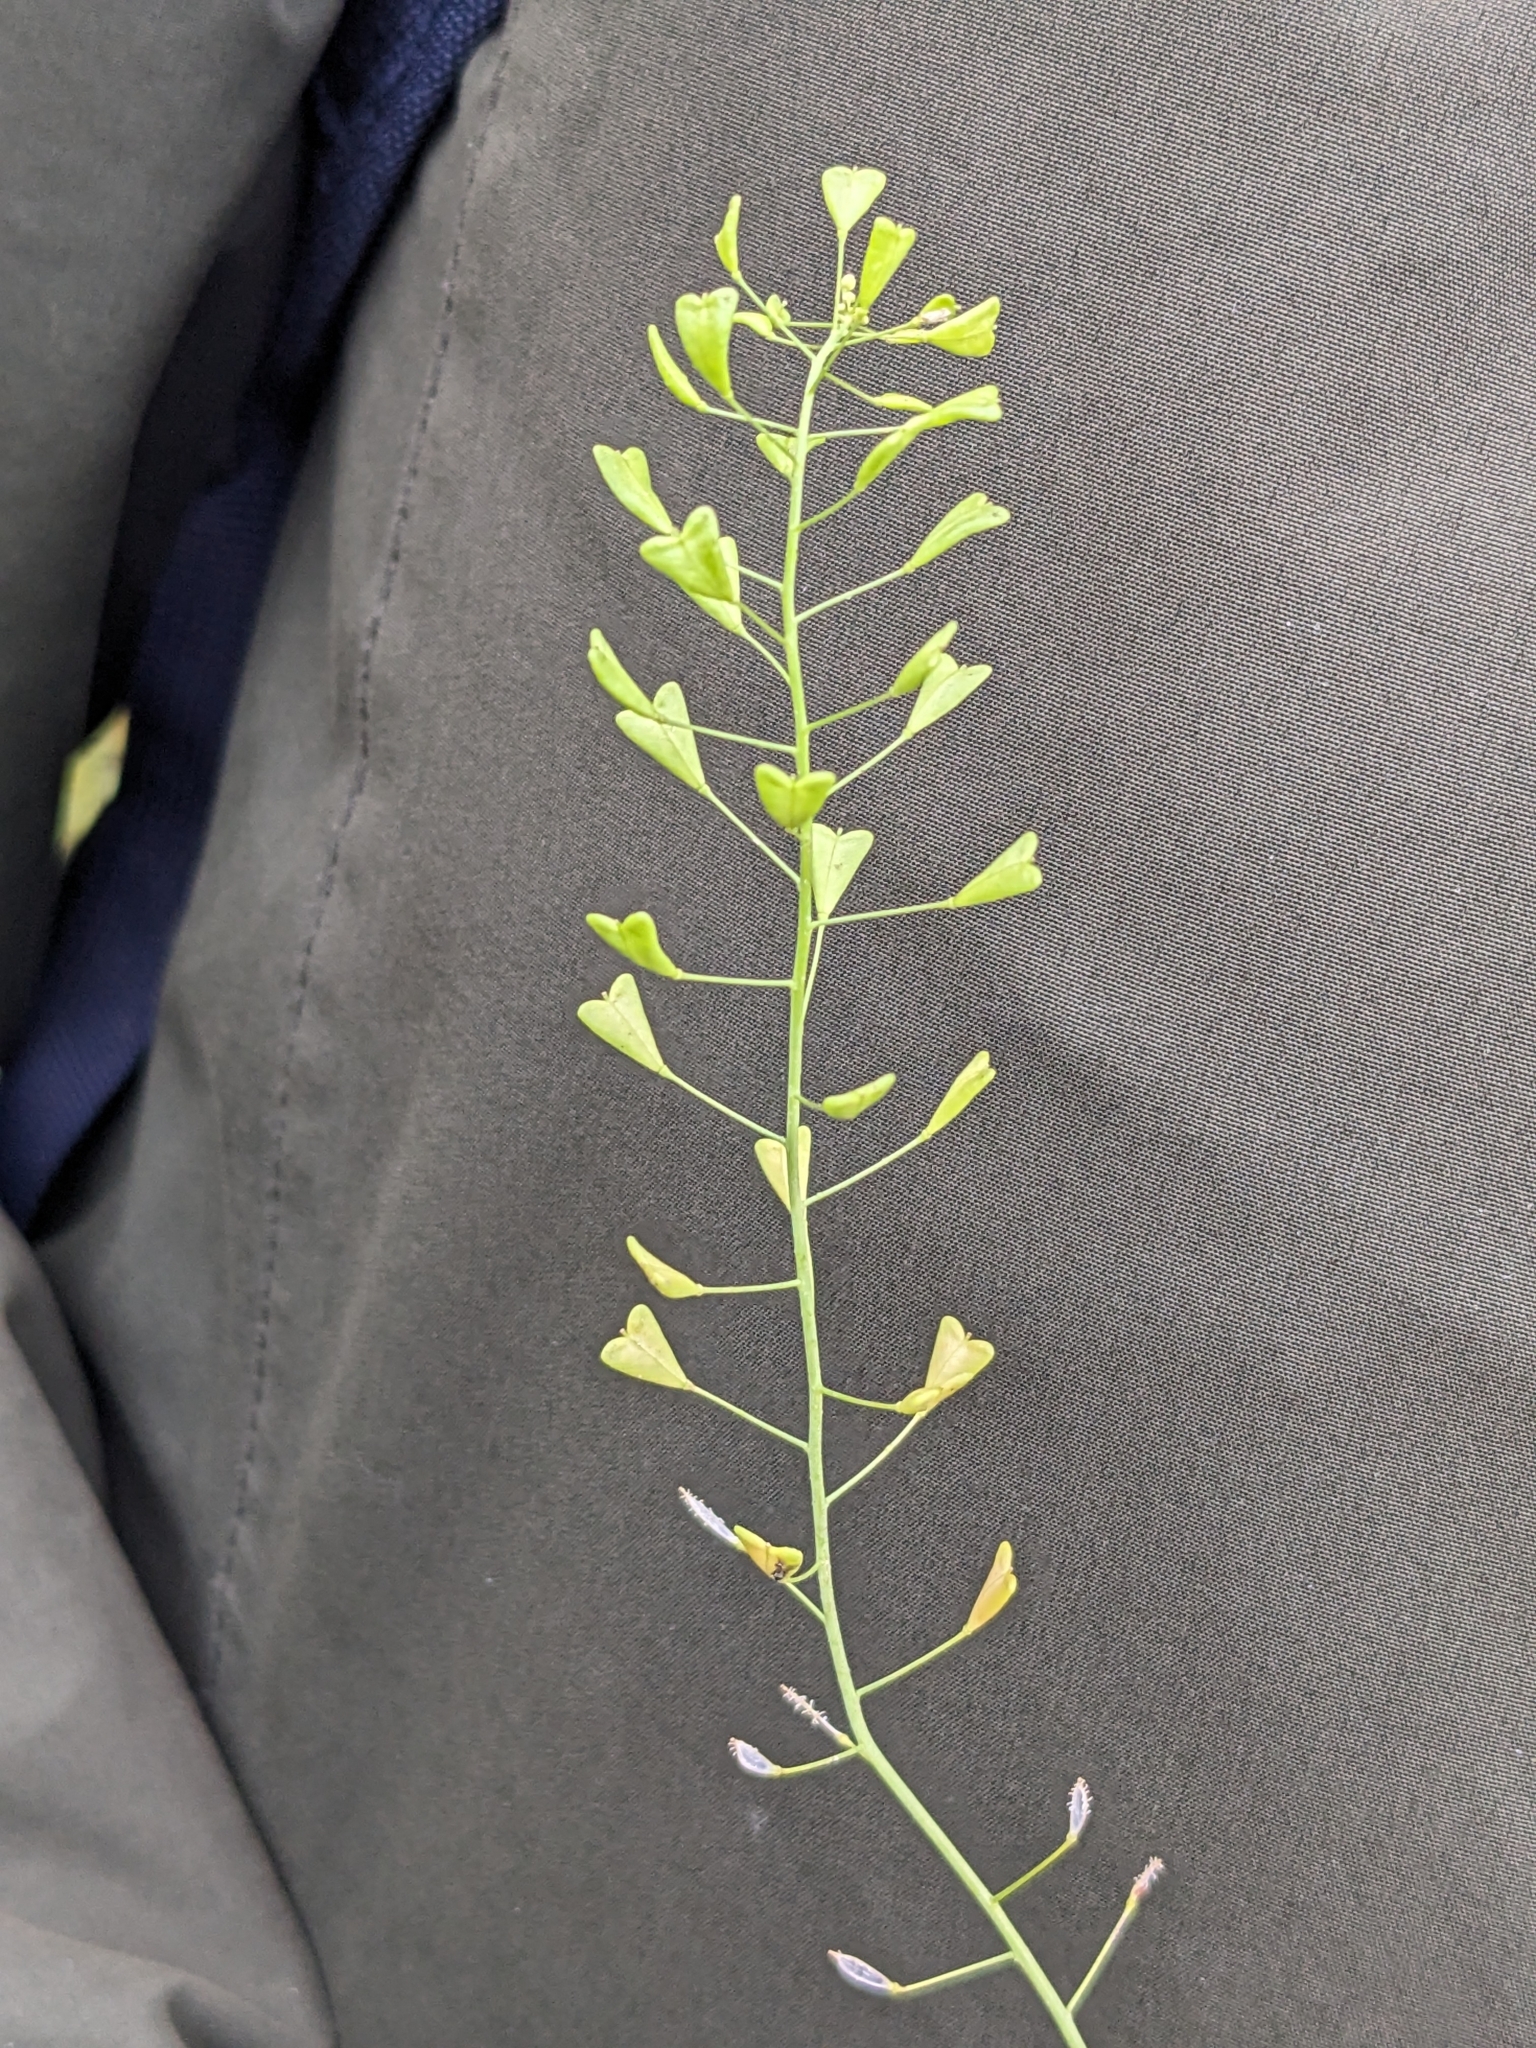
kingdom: Plantae
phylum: Tracheophyta
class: Magnoliopsida
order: Brassicales
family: Brassicaceae
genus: Capsella
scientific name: Capsella bursa-pastoris
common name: Shepherd's purse
